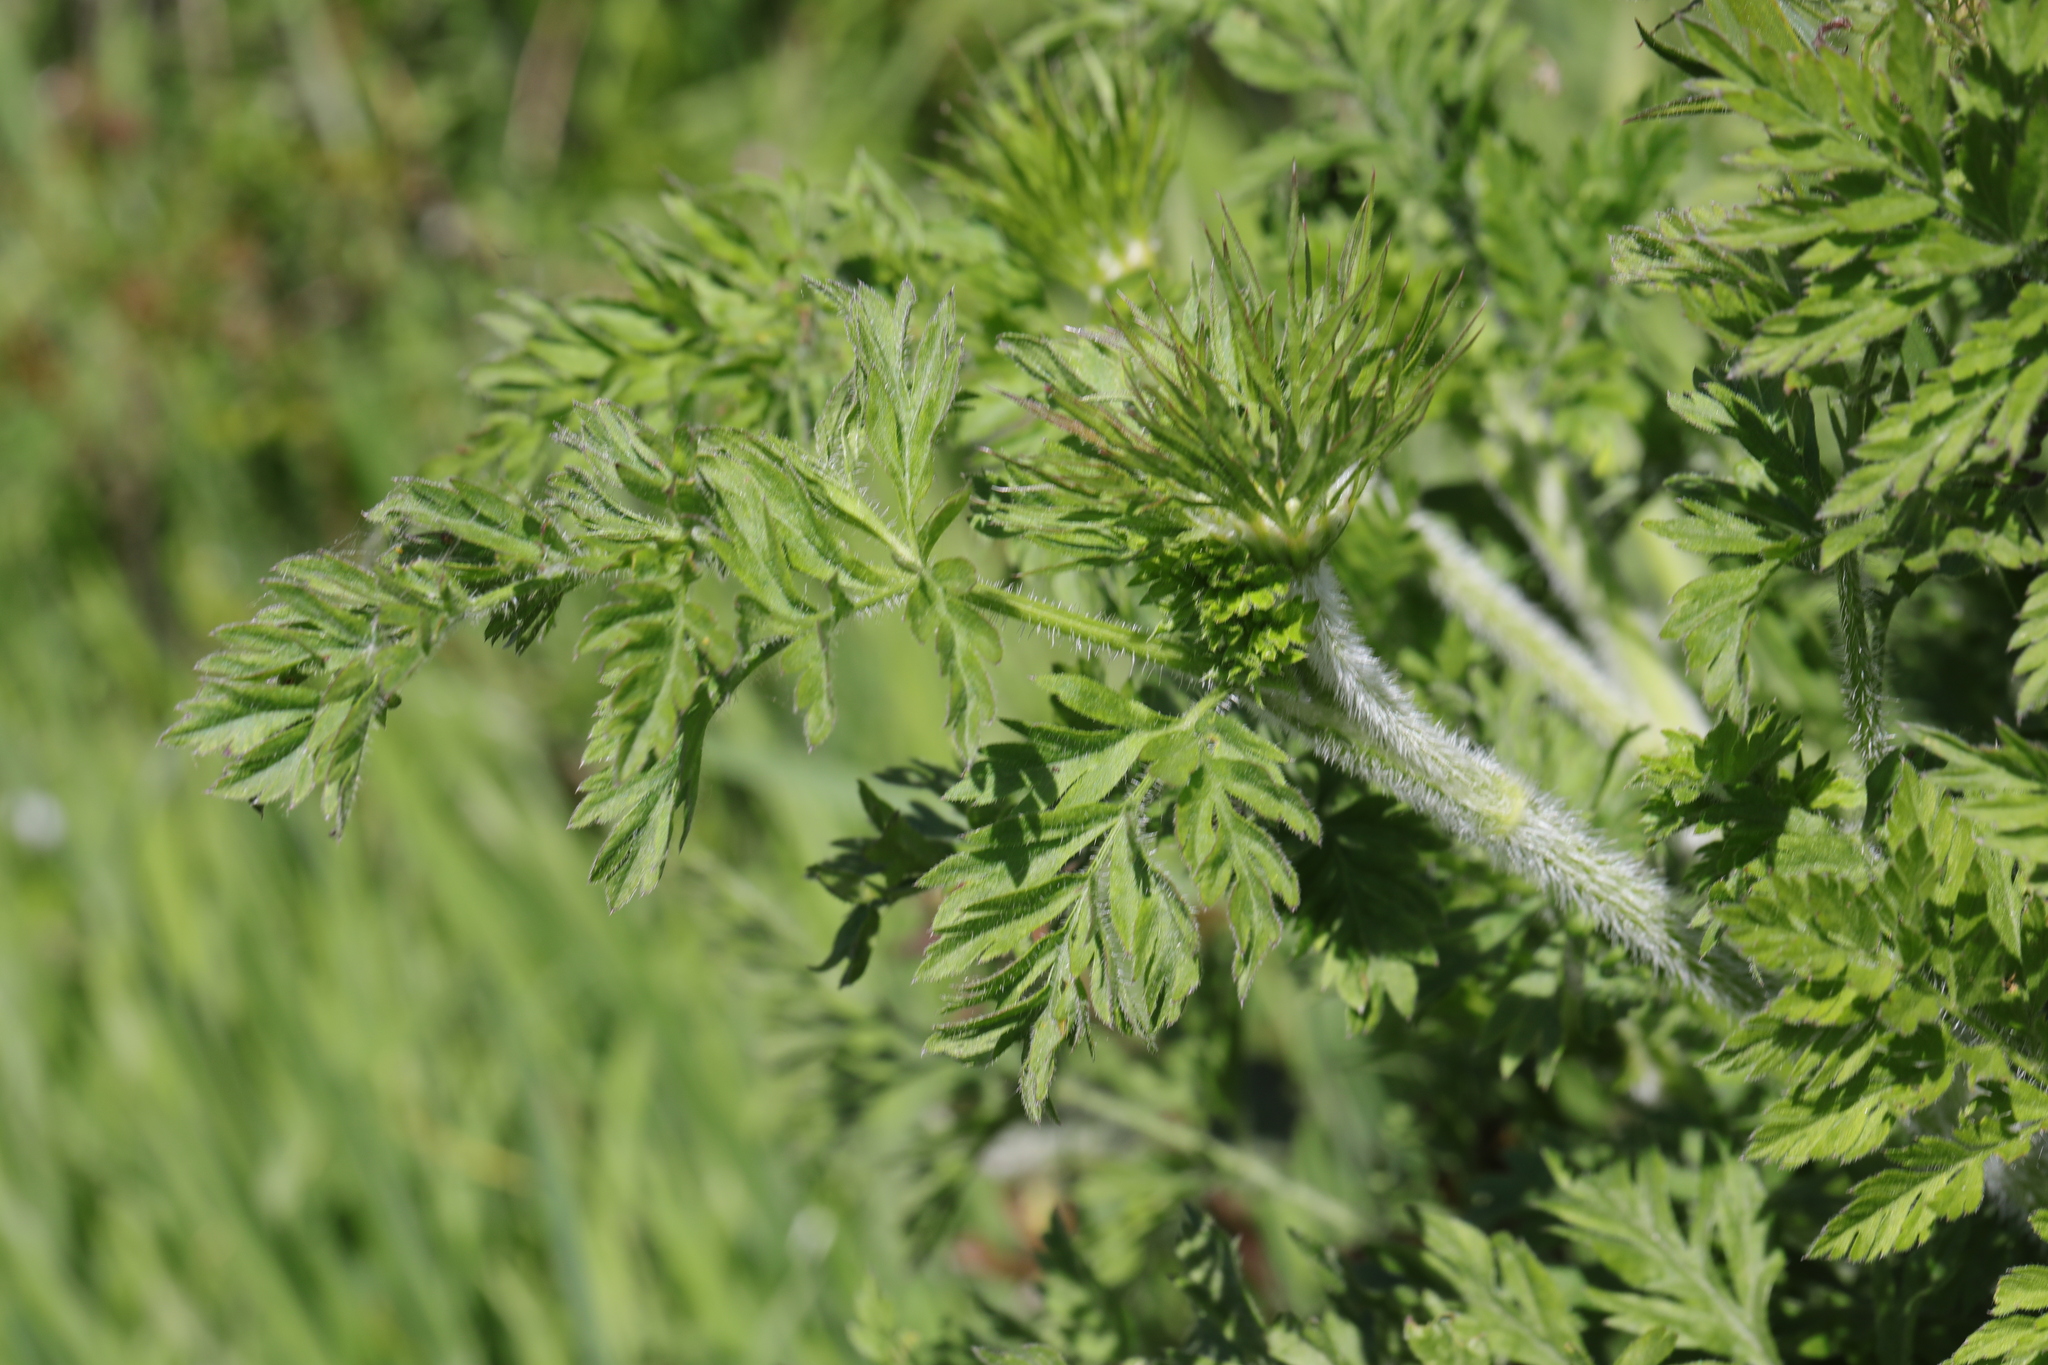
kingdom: Plantae
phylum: Tracheophyta
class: Magnoliopsida
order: Apiales
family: Apiaceae
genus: Daucus
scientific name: Daucus carota
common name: Wild carrot
